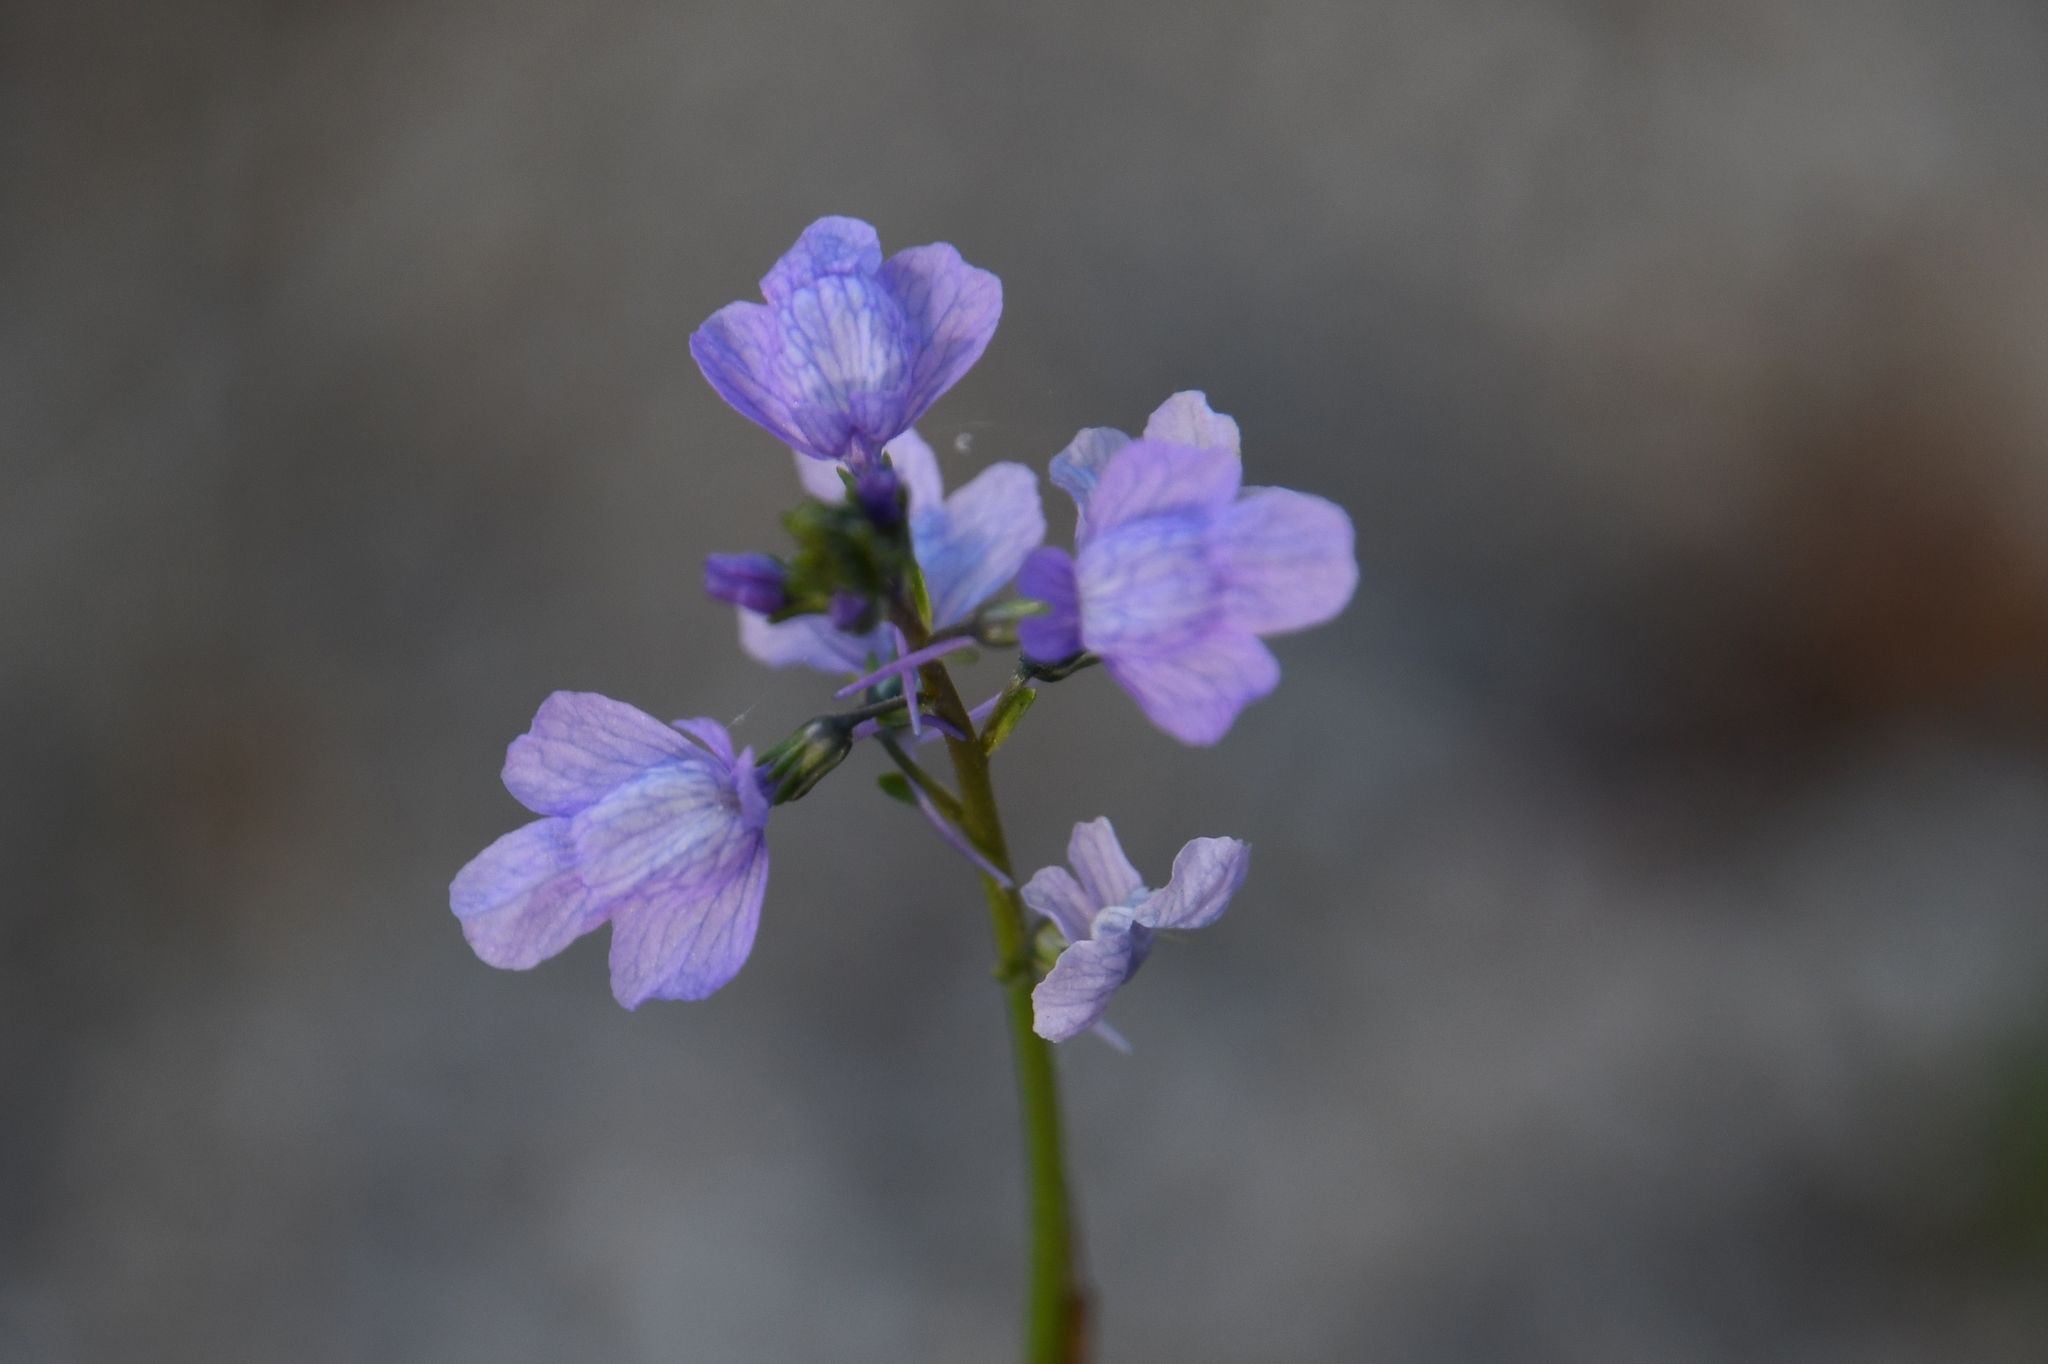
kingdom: Plantae
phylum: Tracheophyta
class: Magnoliopsida
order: Lamiales
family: Plantaginaceae
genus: Nuttallanthus
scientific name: Nuttallanthus texanus
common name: Texas toadflax
